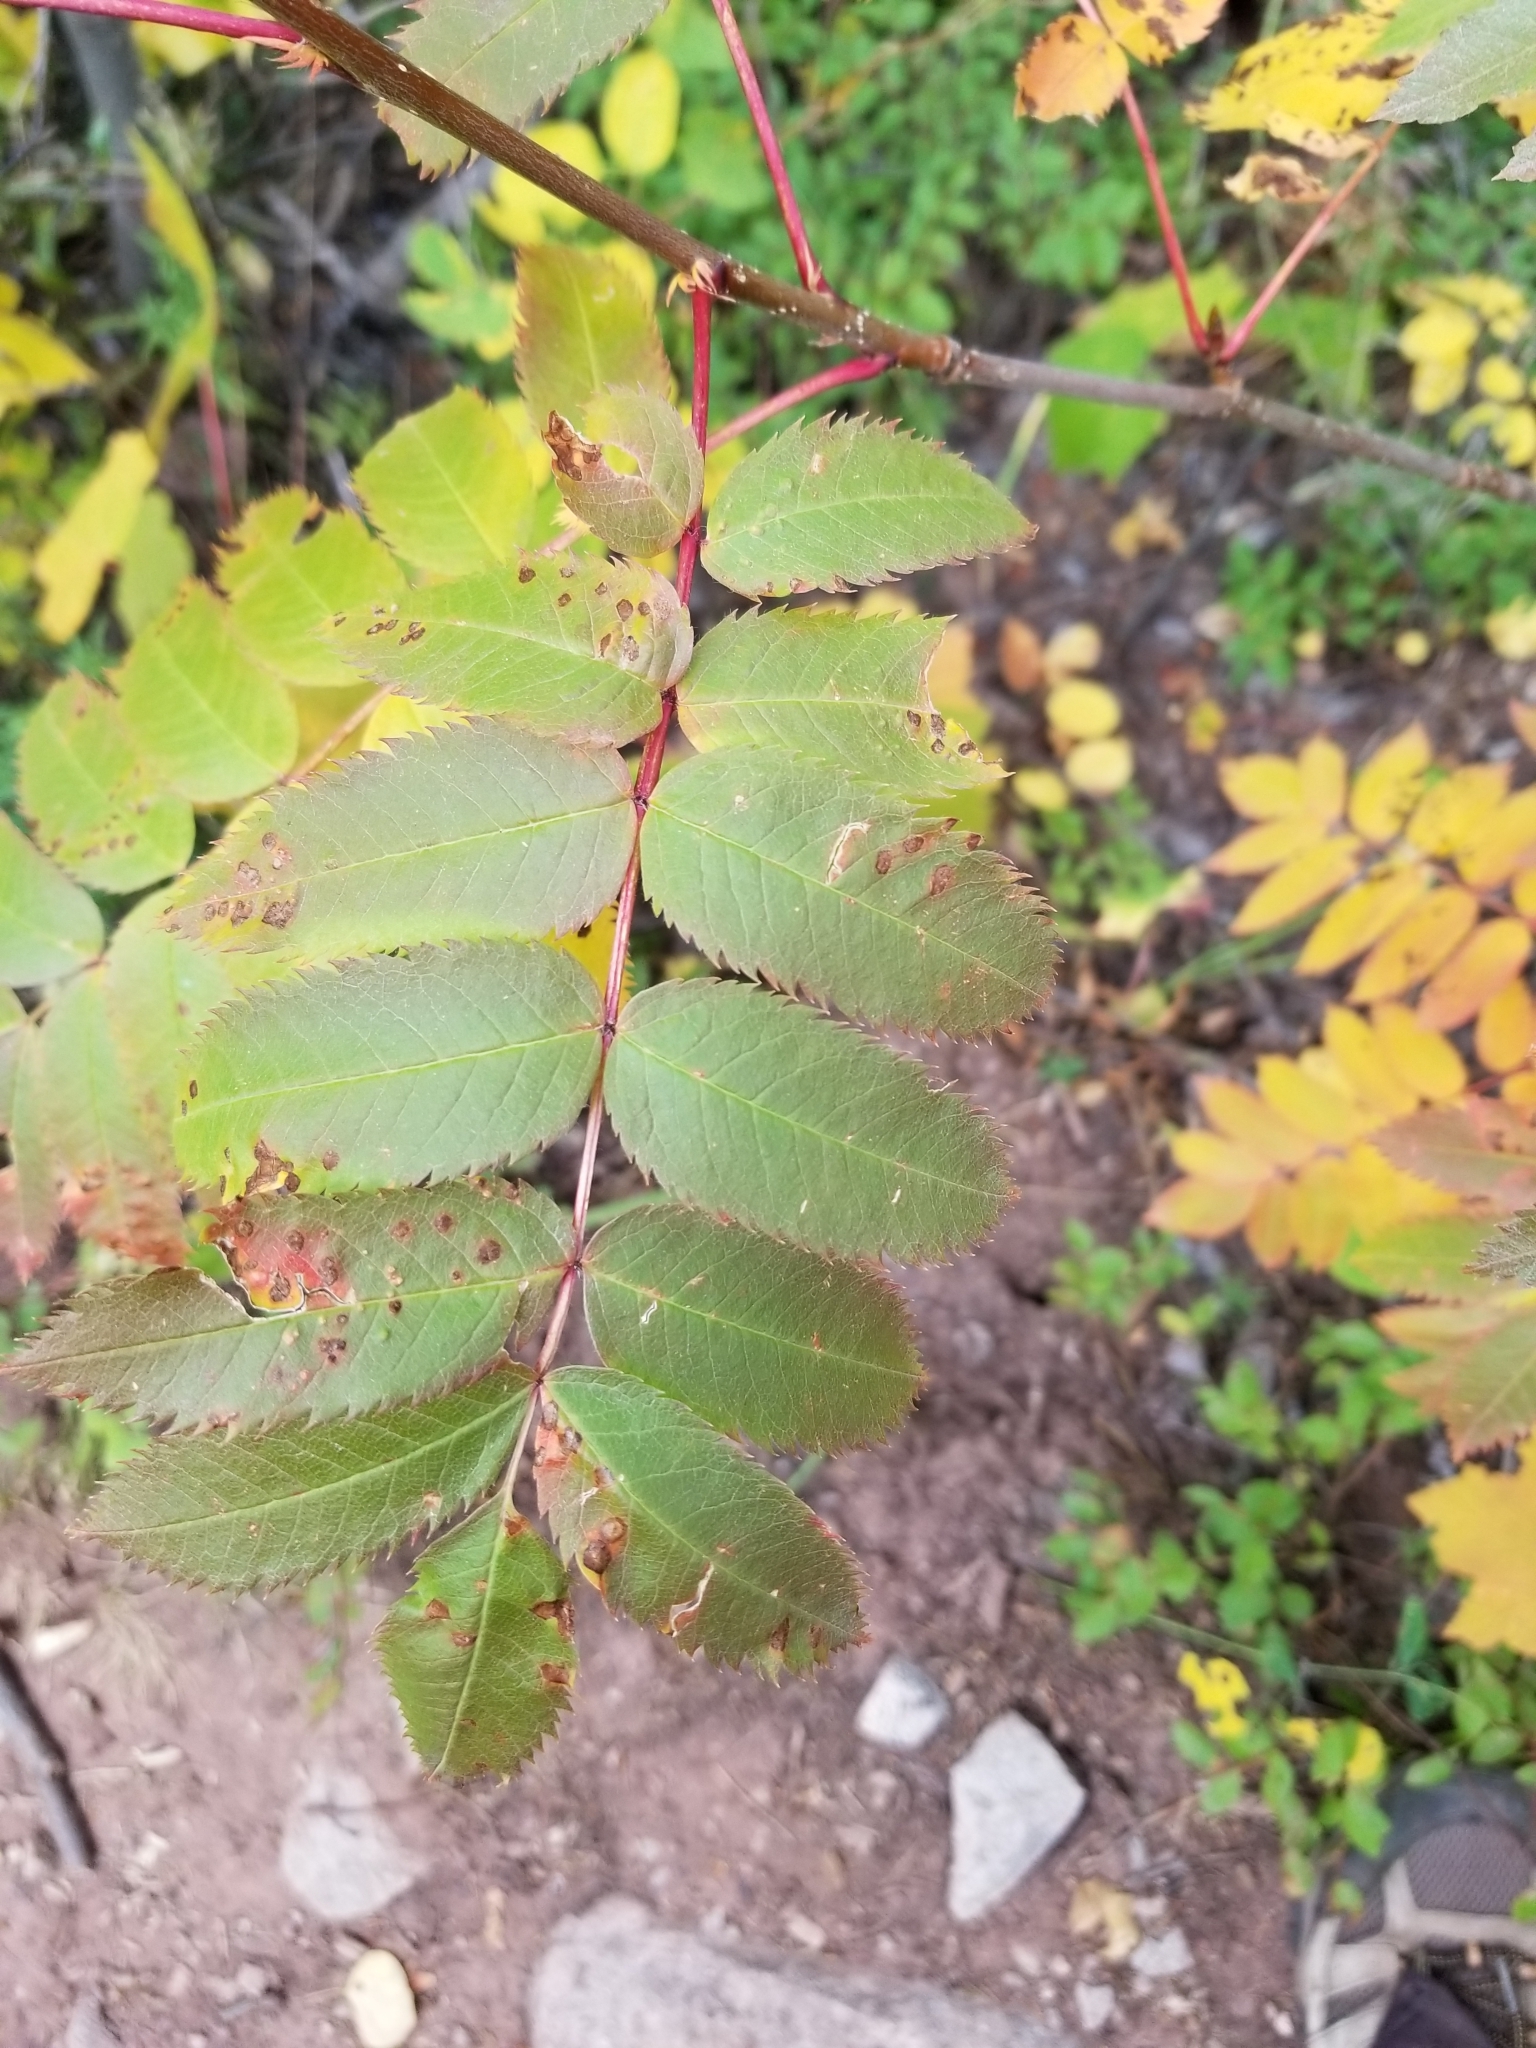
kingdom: Plantae
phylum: Tracheophyta
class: Magnoliopsida
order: Rosales
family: Rosaceae
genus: Sorbus
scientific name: Sorbus scopulina
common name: Greene's mountain-ash
